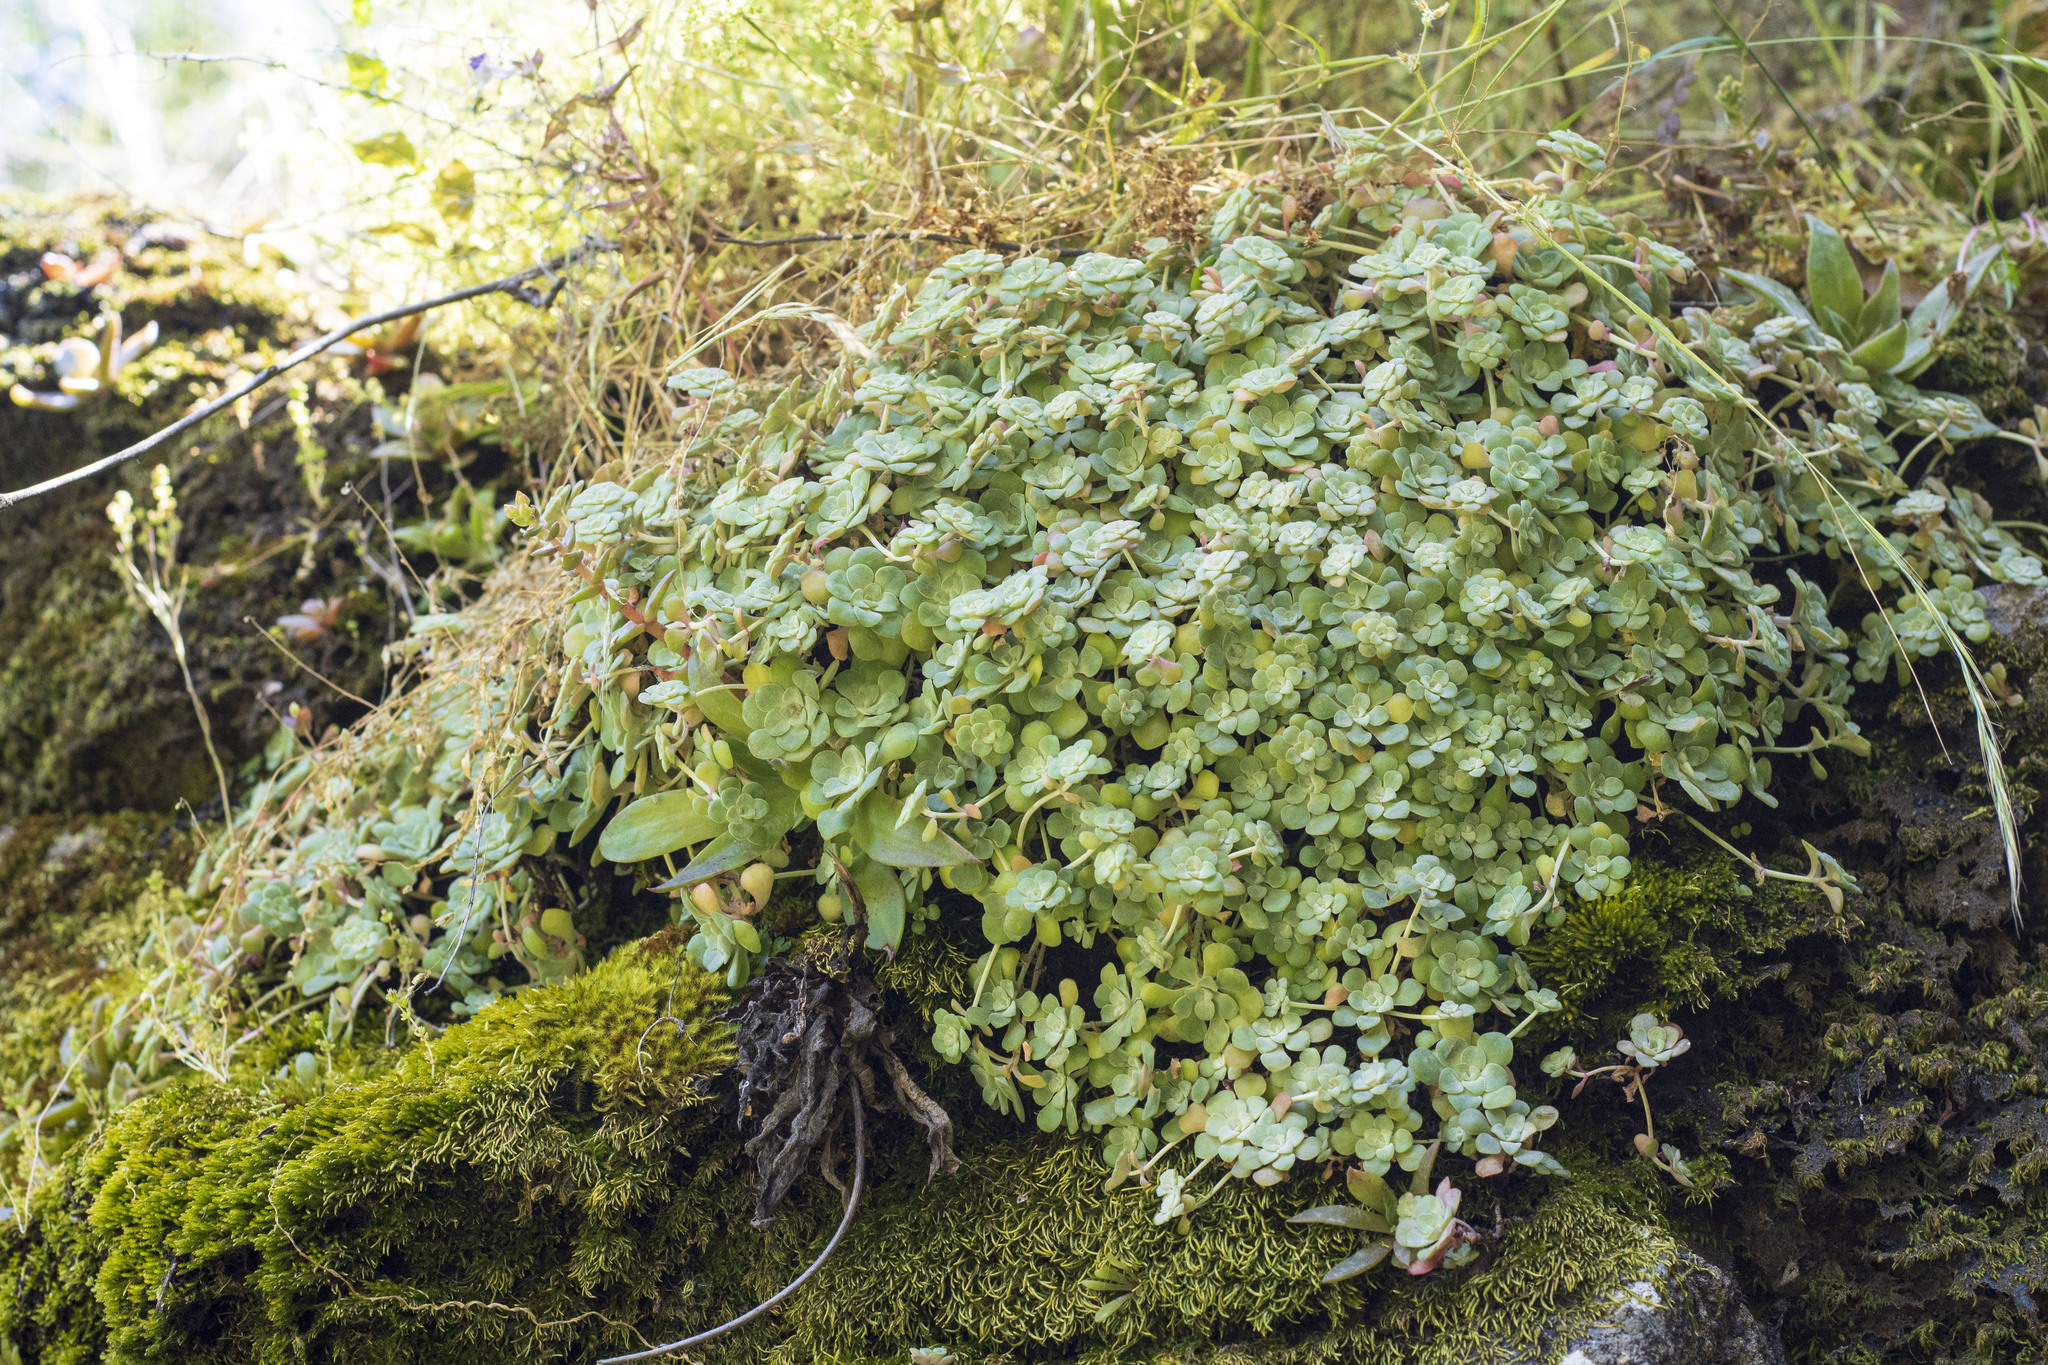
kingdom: Plantae
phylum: Tracheophyta
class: Magnoliopsida
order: Saxifragales
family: Crassulaceae
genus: Sedum
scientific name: Sedum spathulifolium
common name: Colorado stonecrop
